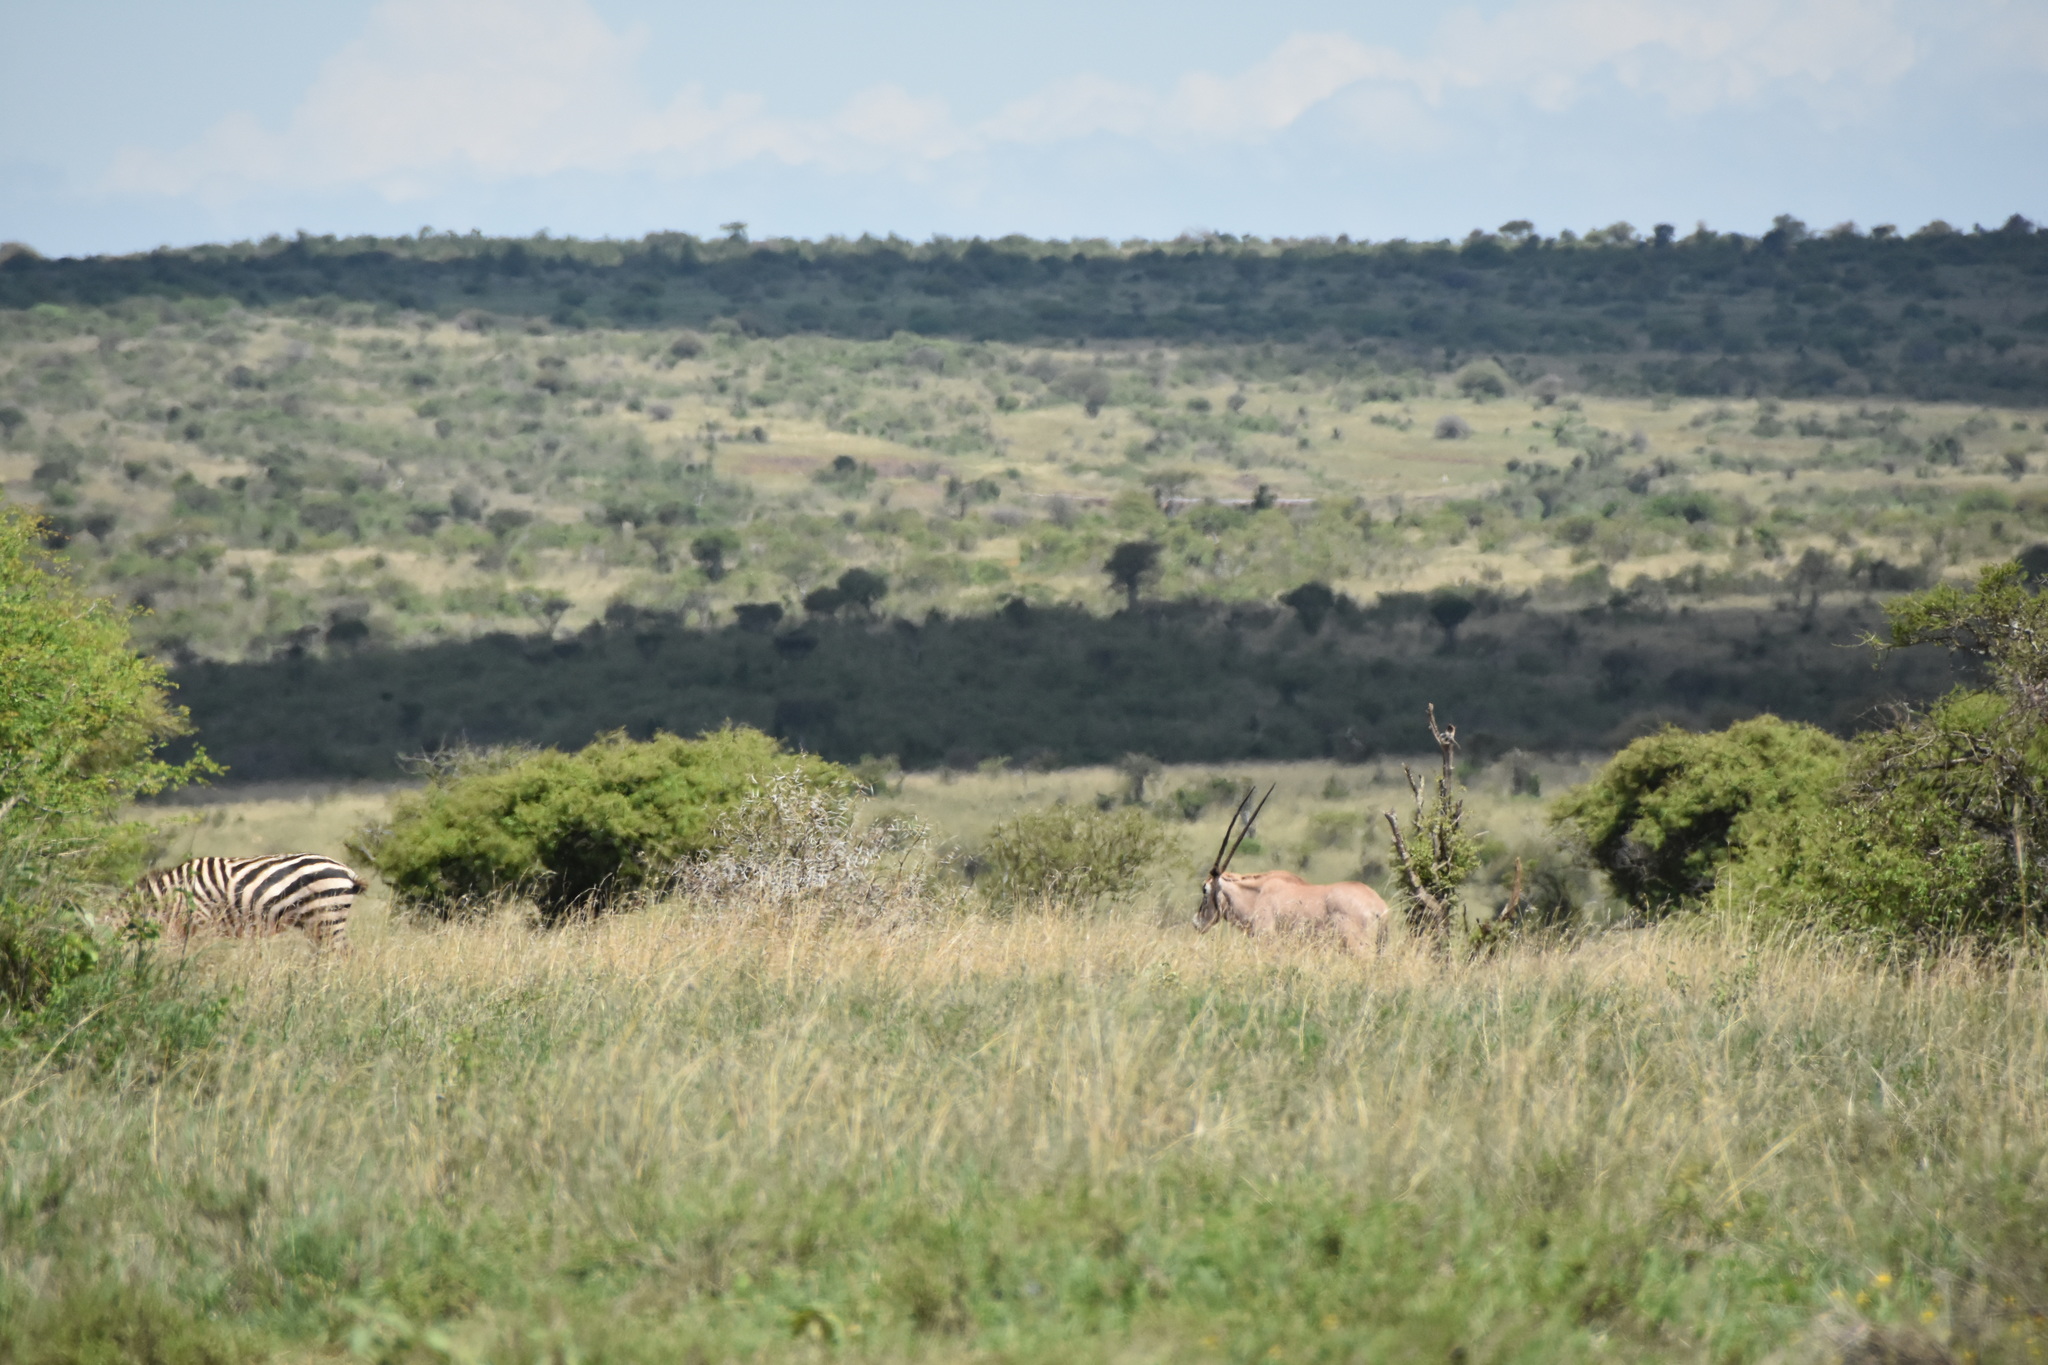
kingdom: Animalia
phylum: Chordata
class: Mammalia
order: Artiodactyla
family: Bovidae
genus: Oryx
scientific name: Oryx beisa
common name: Beisa
